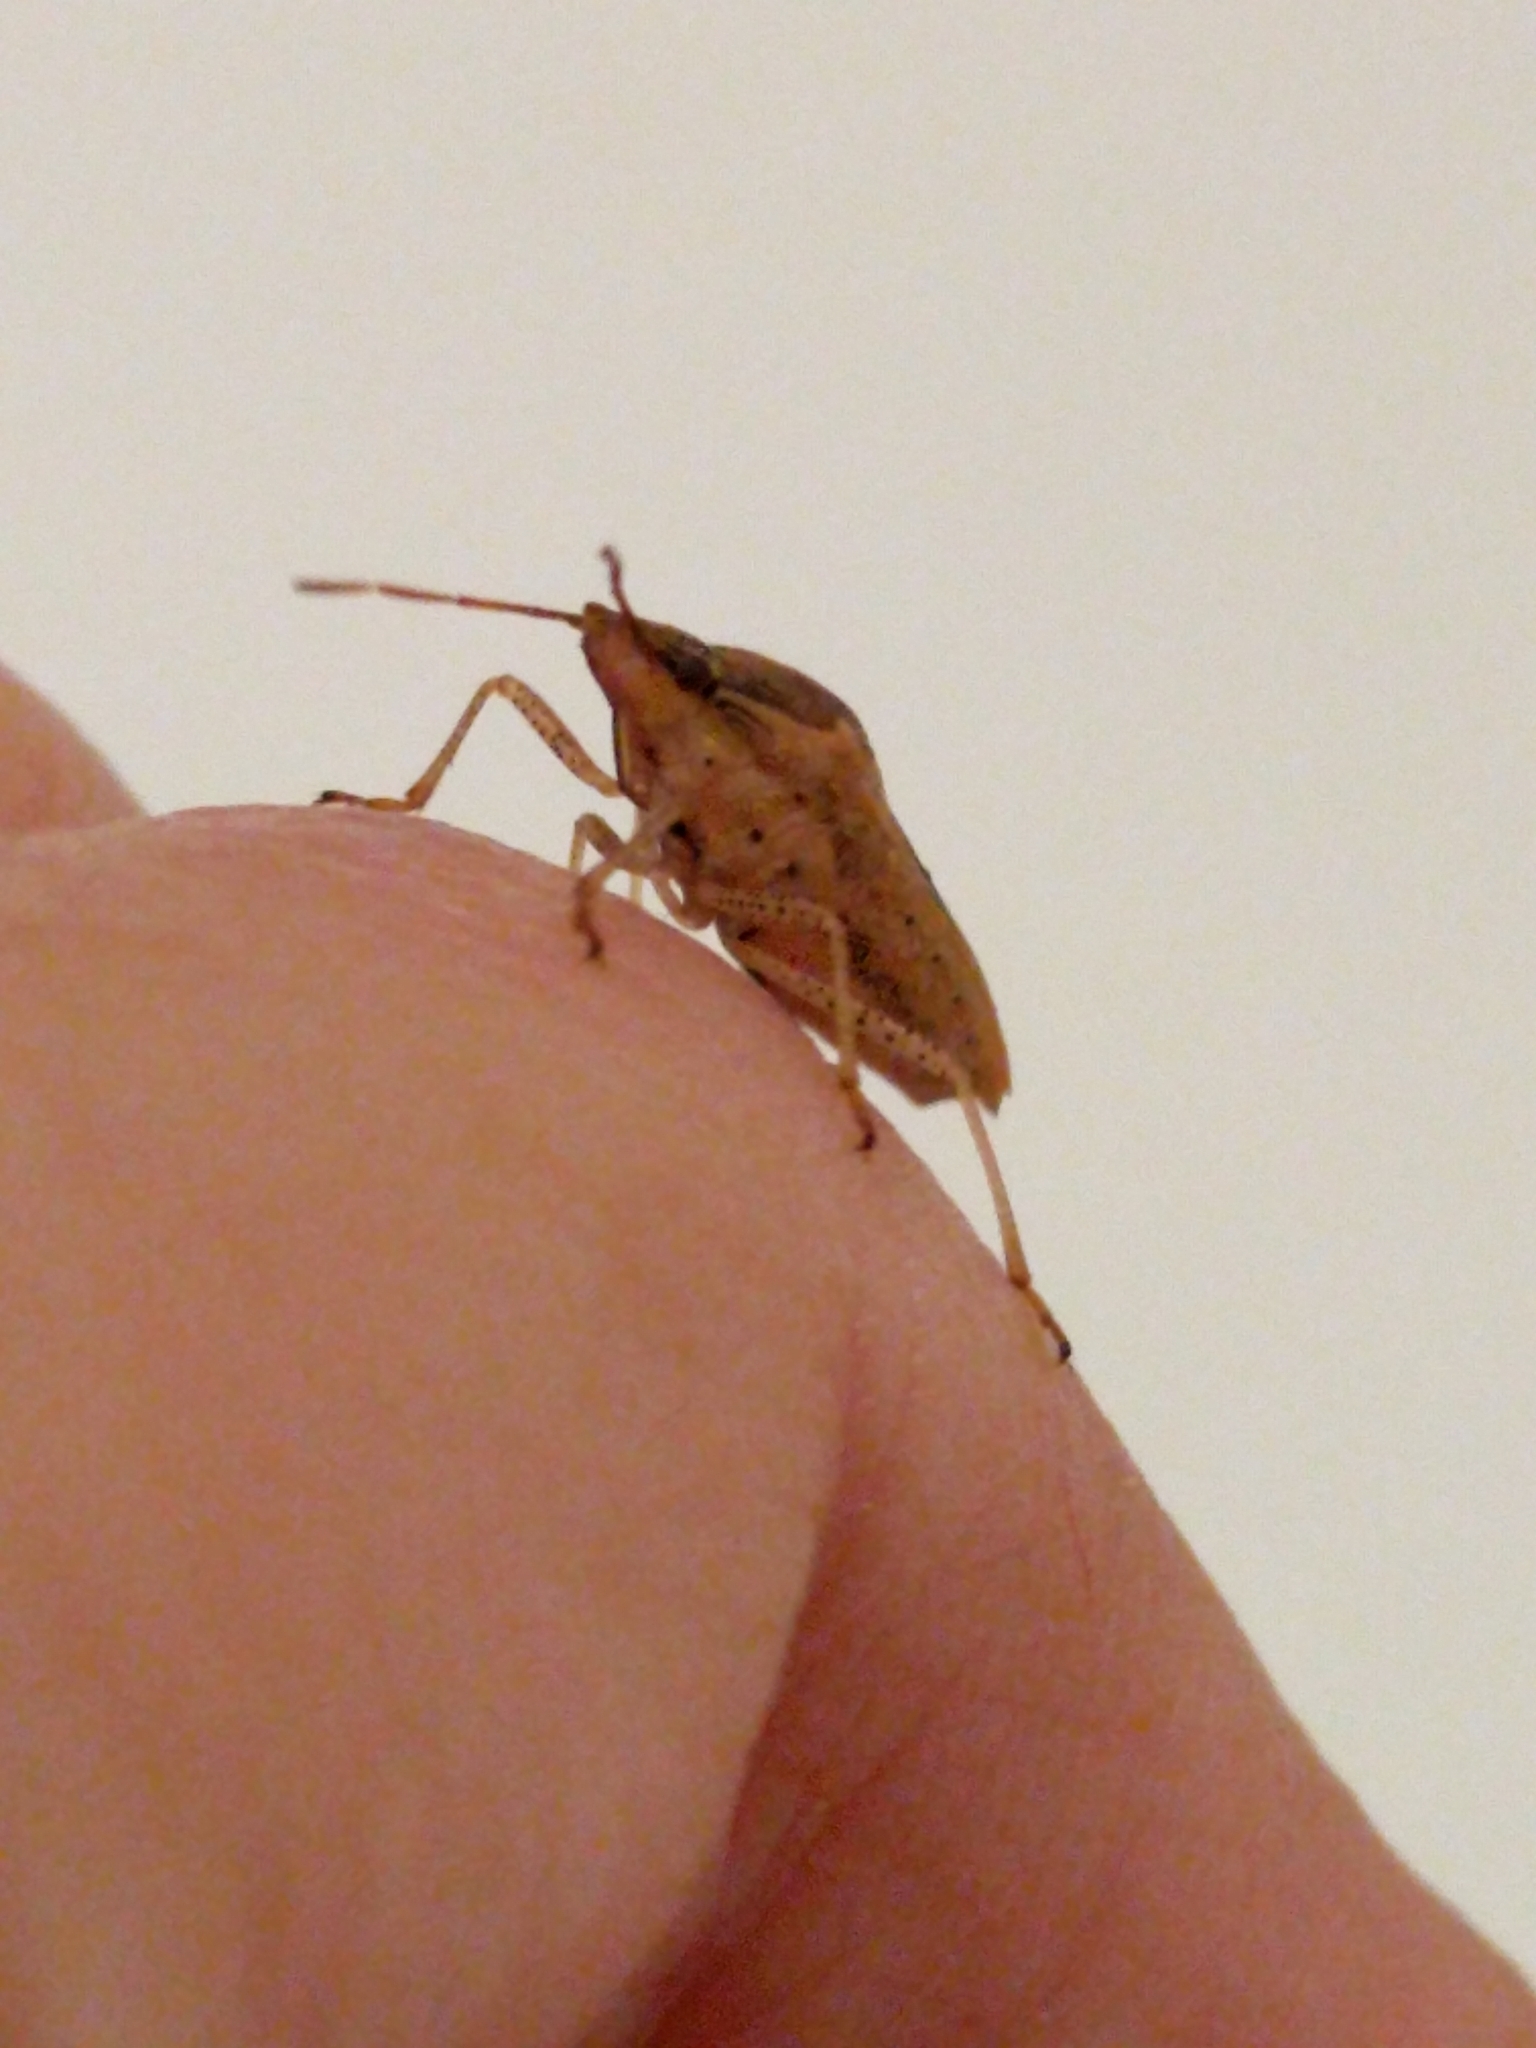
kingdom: Animalia
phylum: Arthropoda
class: Insecta
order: Hemiptera
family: Pentatomidae
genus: Oebalus
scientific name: Oebalus pugnax
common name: Rice stink bug
